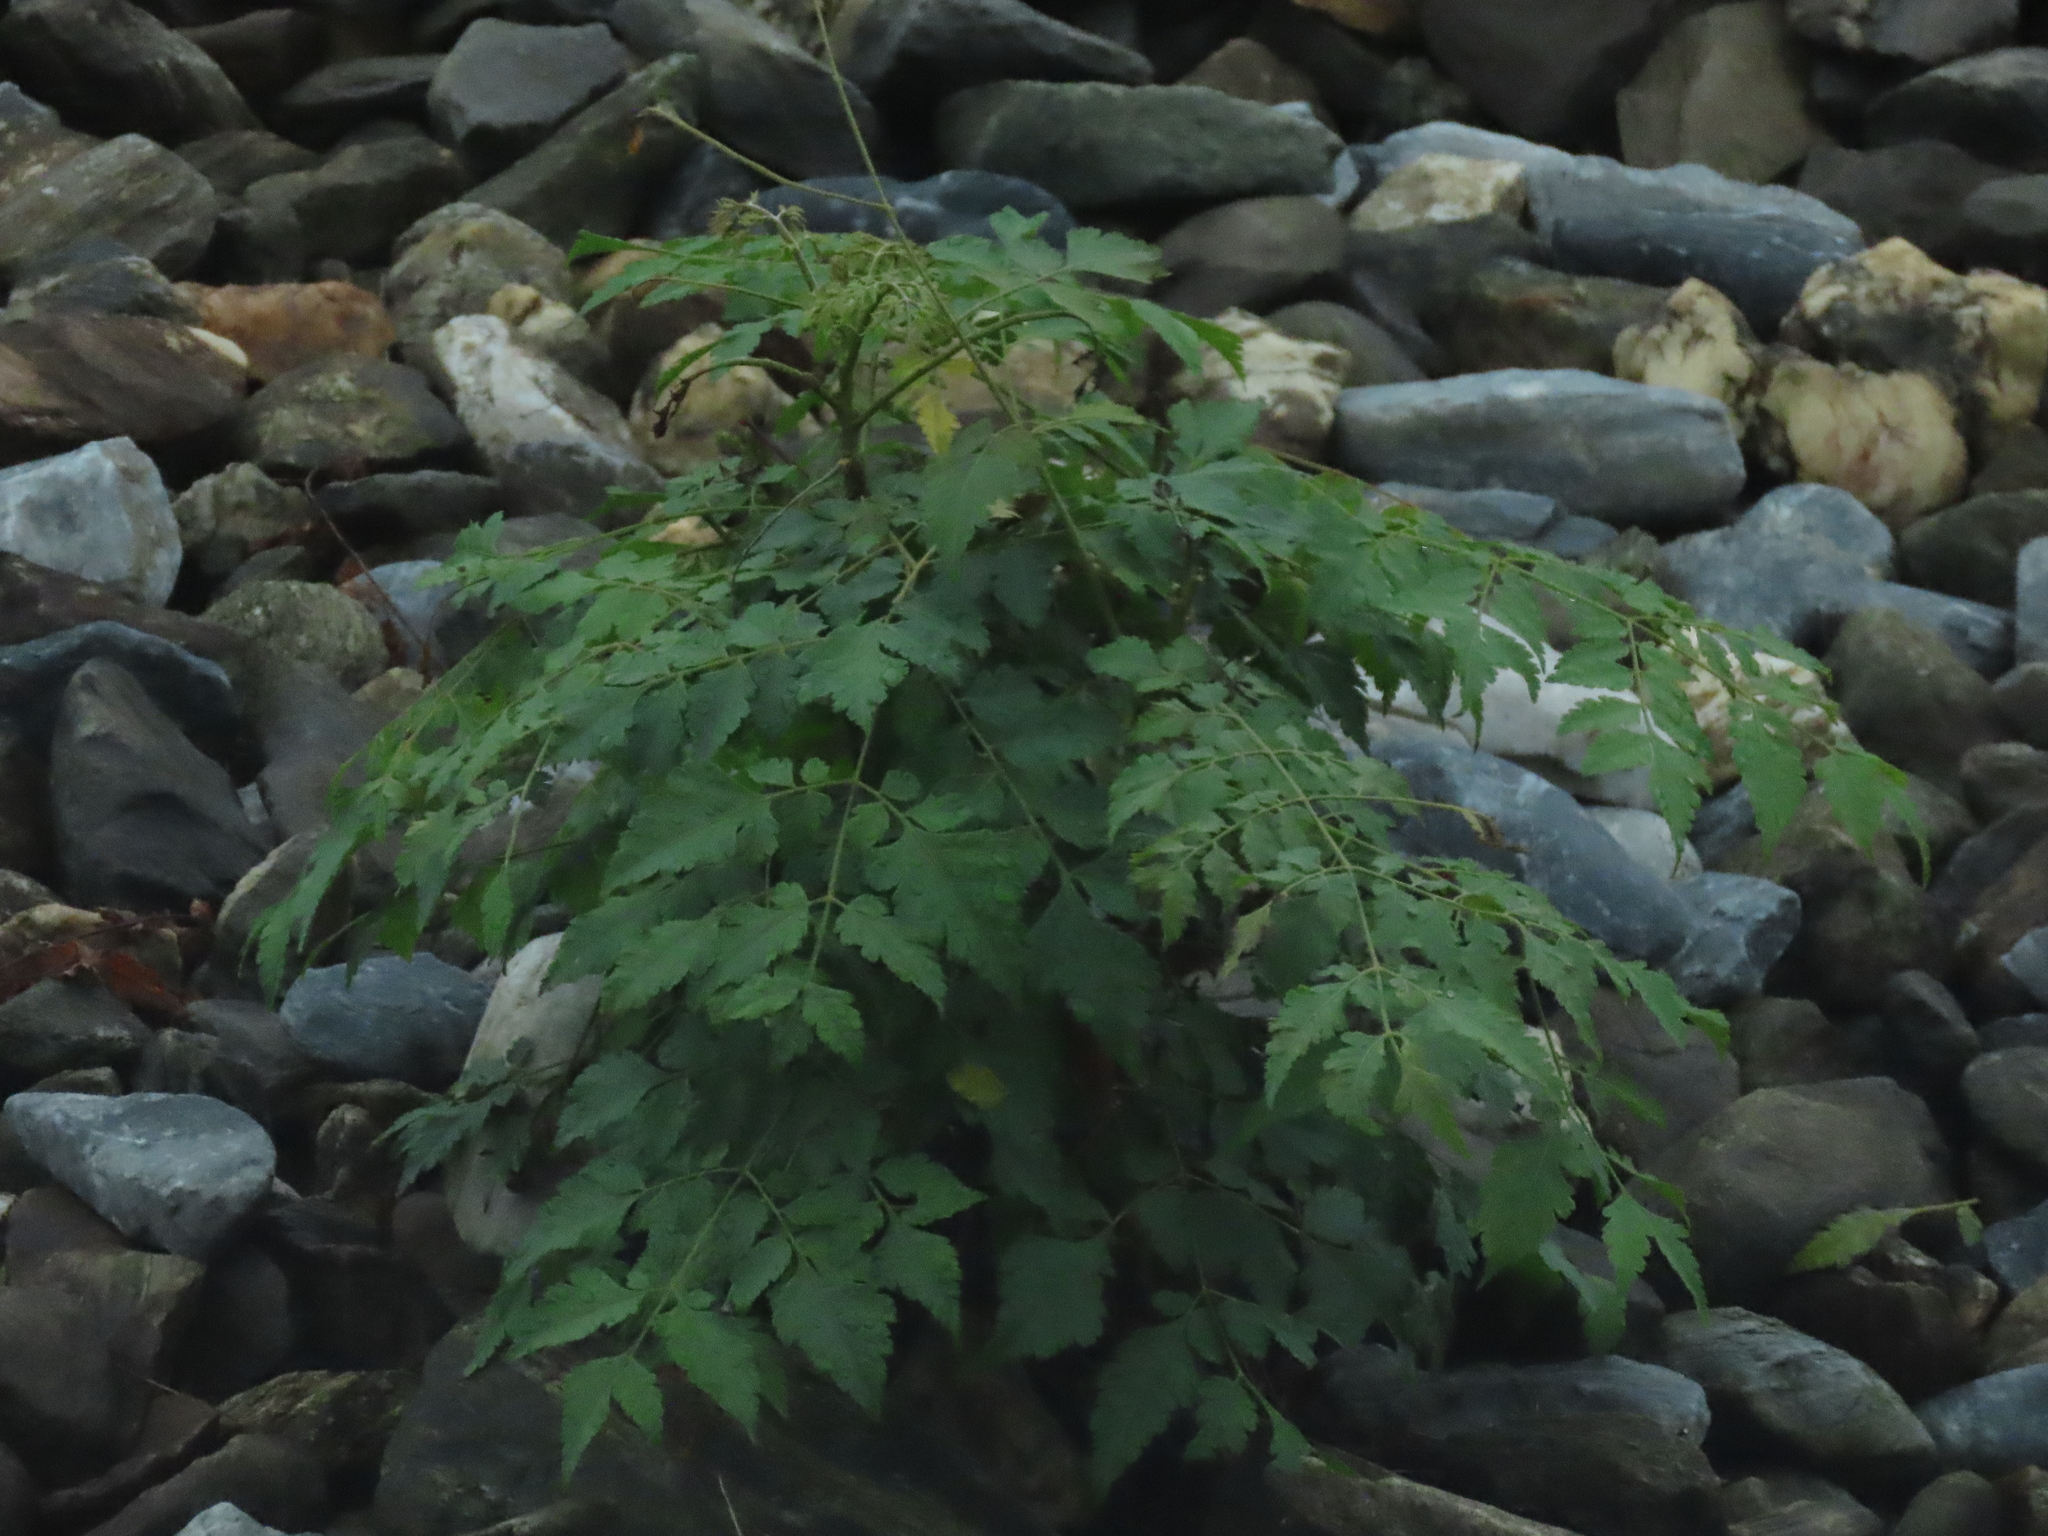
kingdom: Plantae
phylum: Tracheophyta
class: Magnoliopsida
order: Sapindales
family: Sapindaceae
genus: Koelreuteria
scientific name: Koelreuteria elegans
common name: Chinese flame tree
